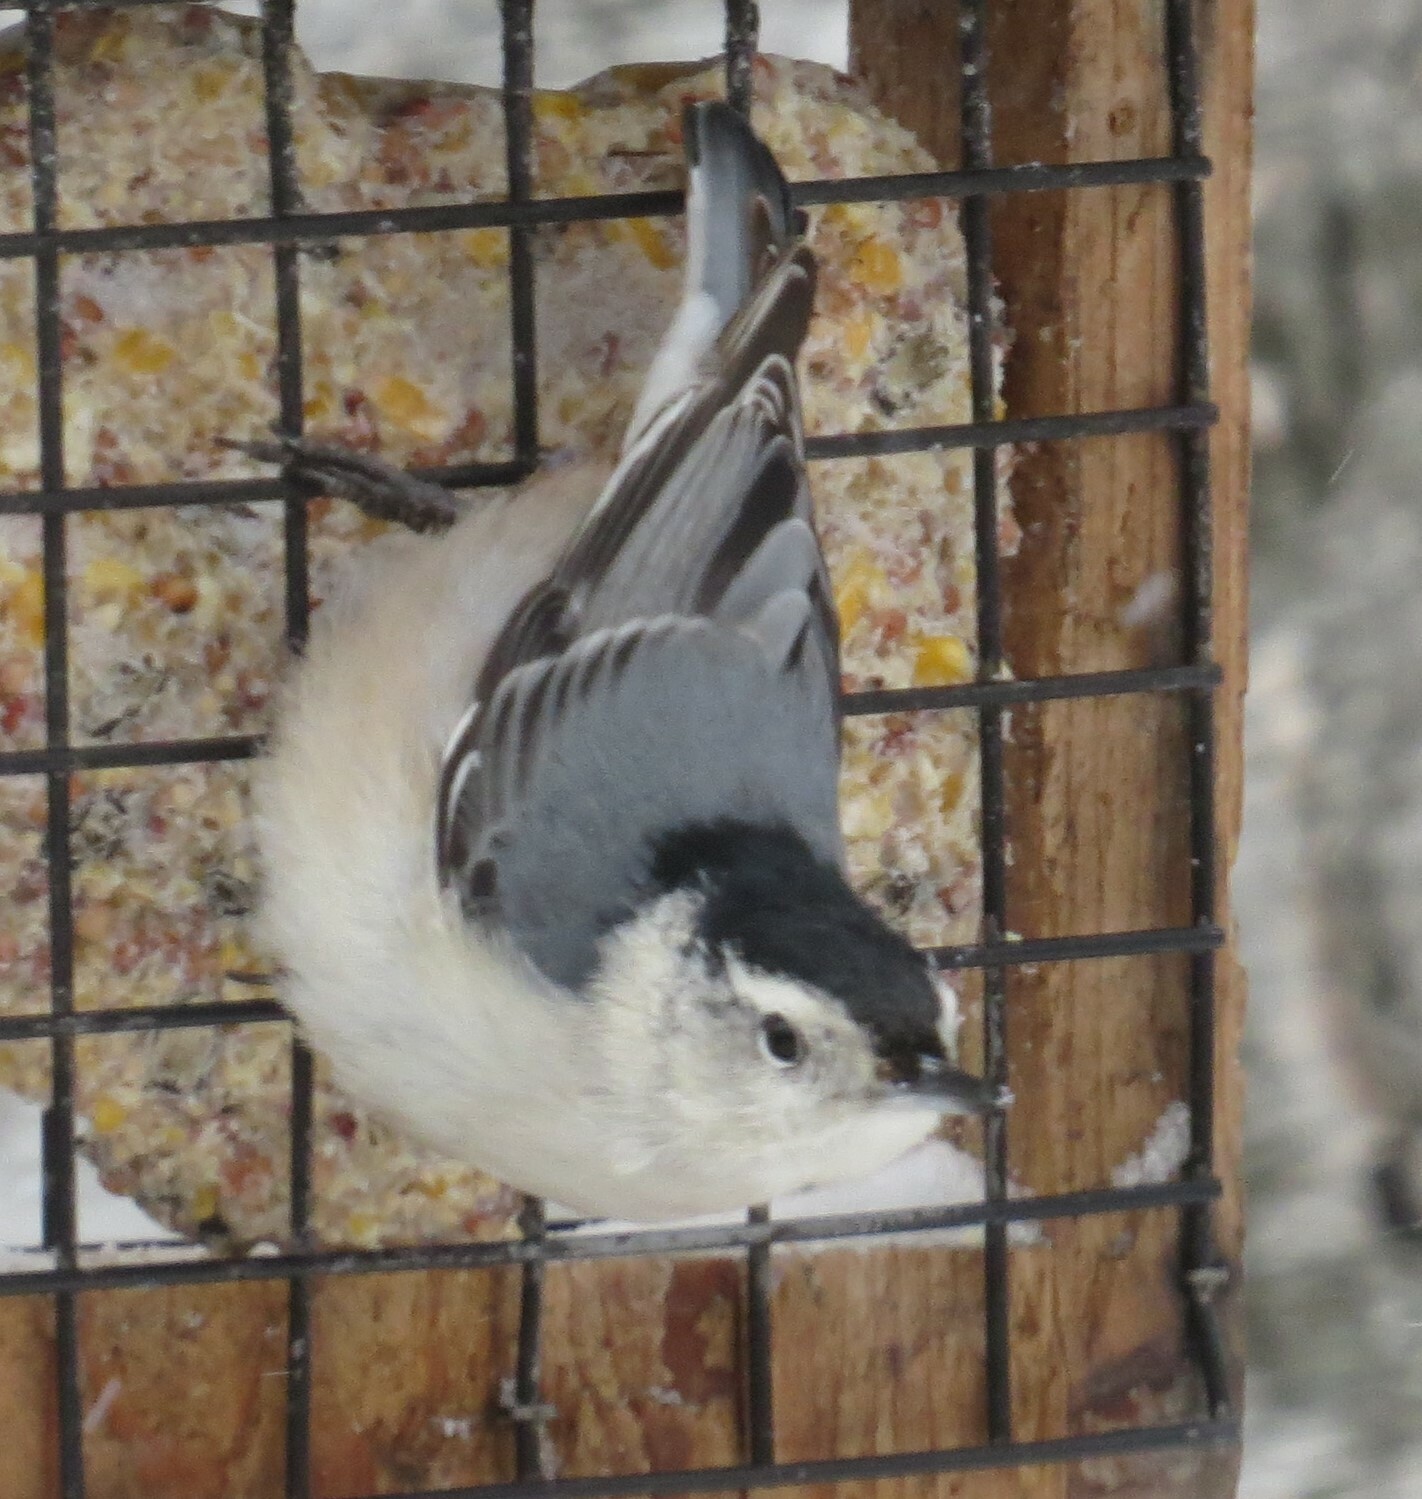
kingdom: Animalia
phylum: Chordata
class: Aves
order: Passeriformes
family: Sittidae
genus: Sitta
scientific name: Sitta carolinensis
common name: White-breasted nuthatch
